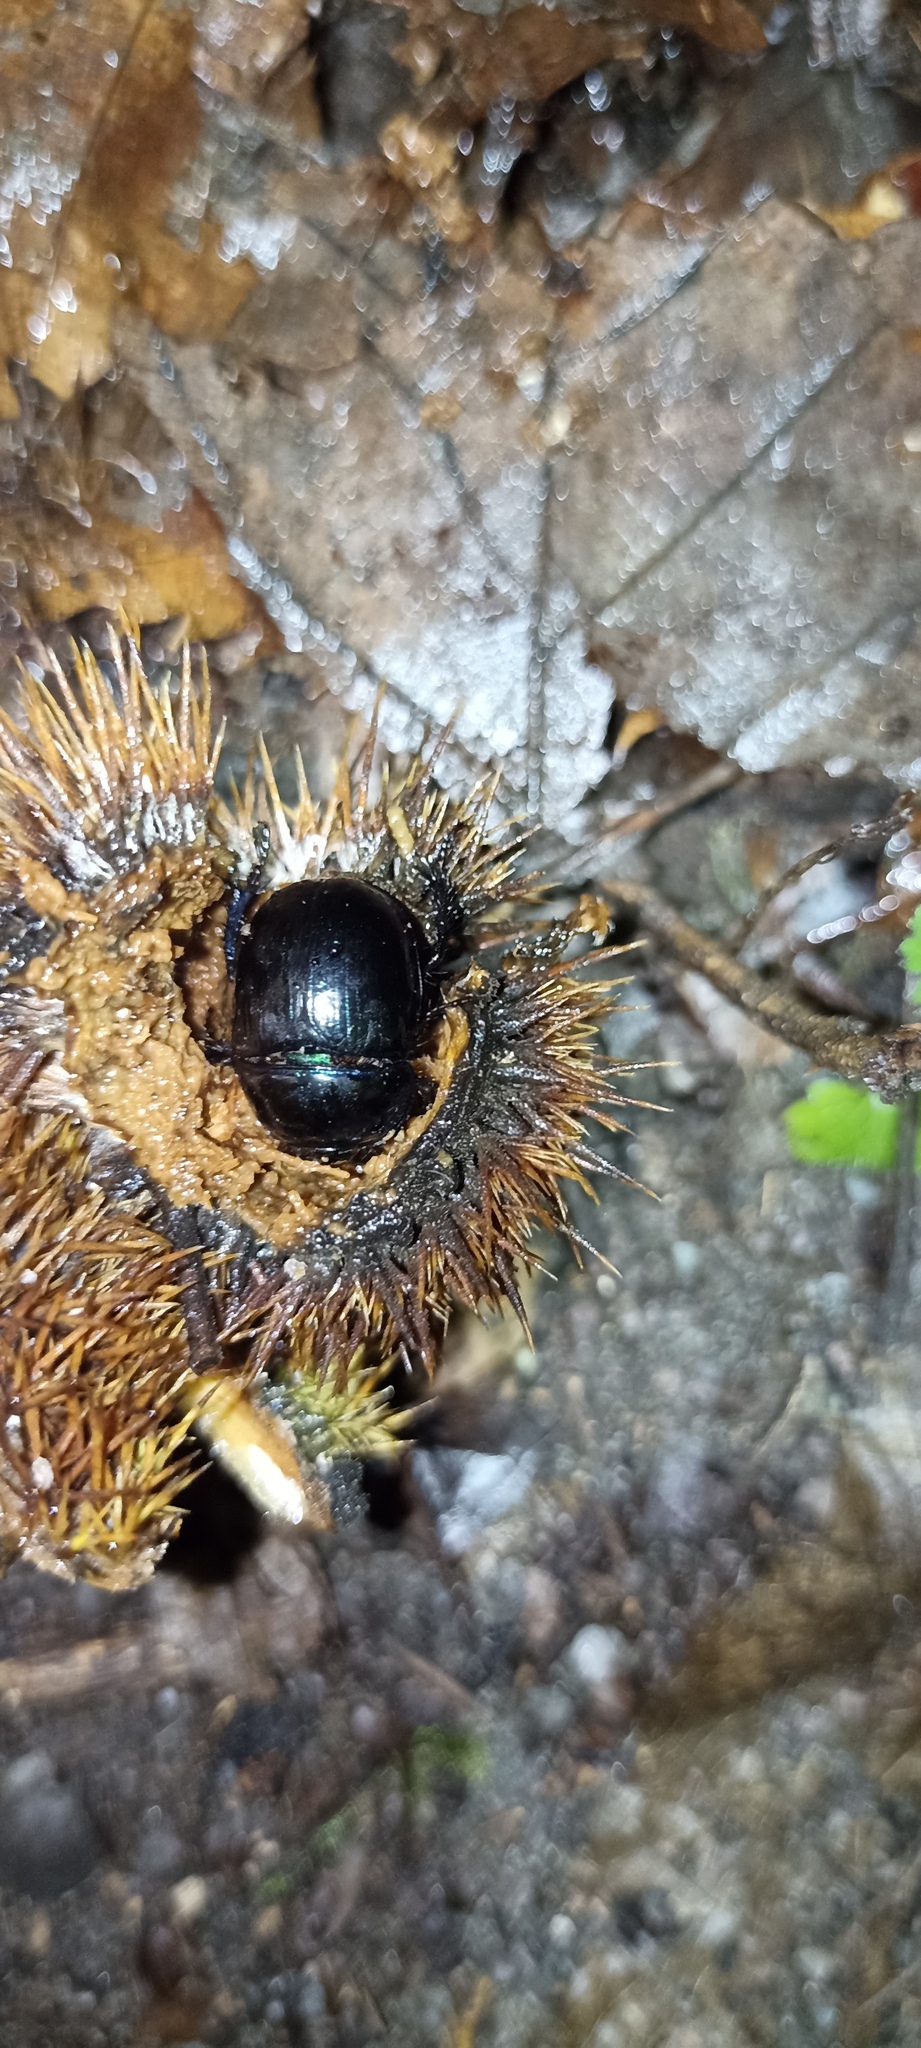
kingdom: Animalia
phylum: Arthropoda
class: Insecta
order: Coleoptera
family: Geotrupidae
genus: Anoplotrupes
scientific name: Anoplotrupes stercorosus
